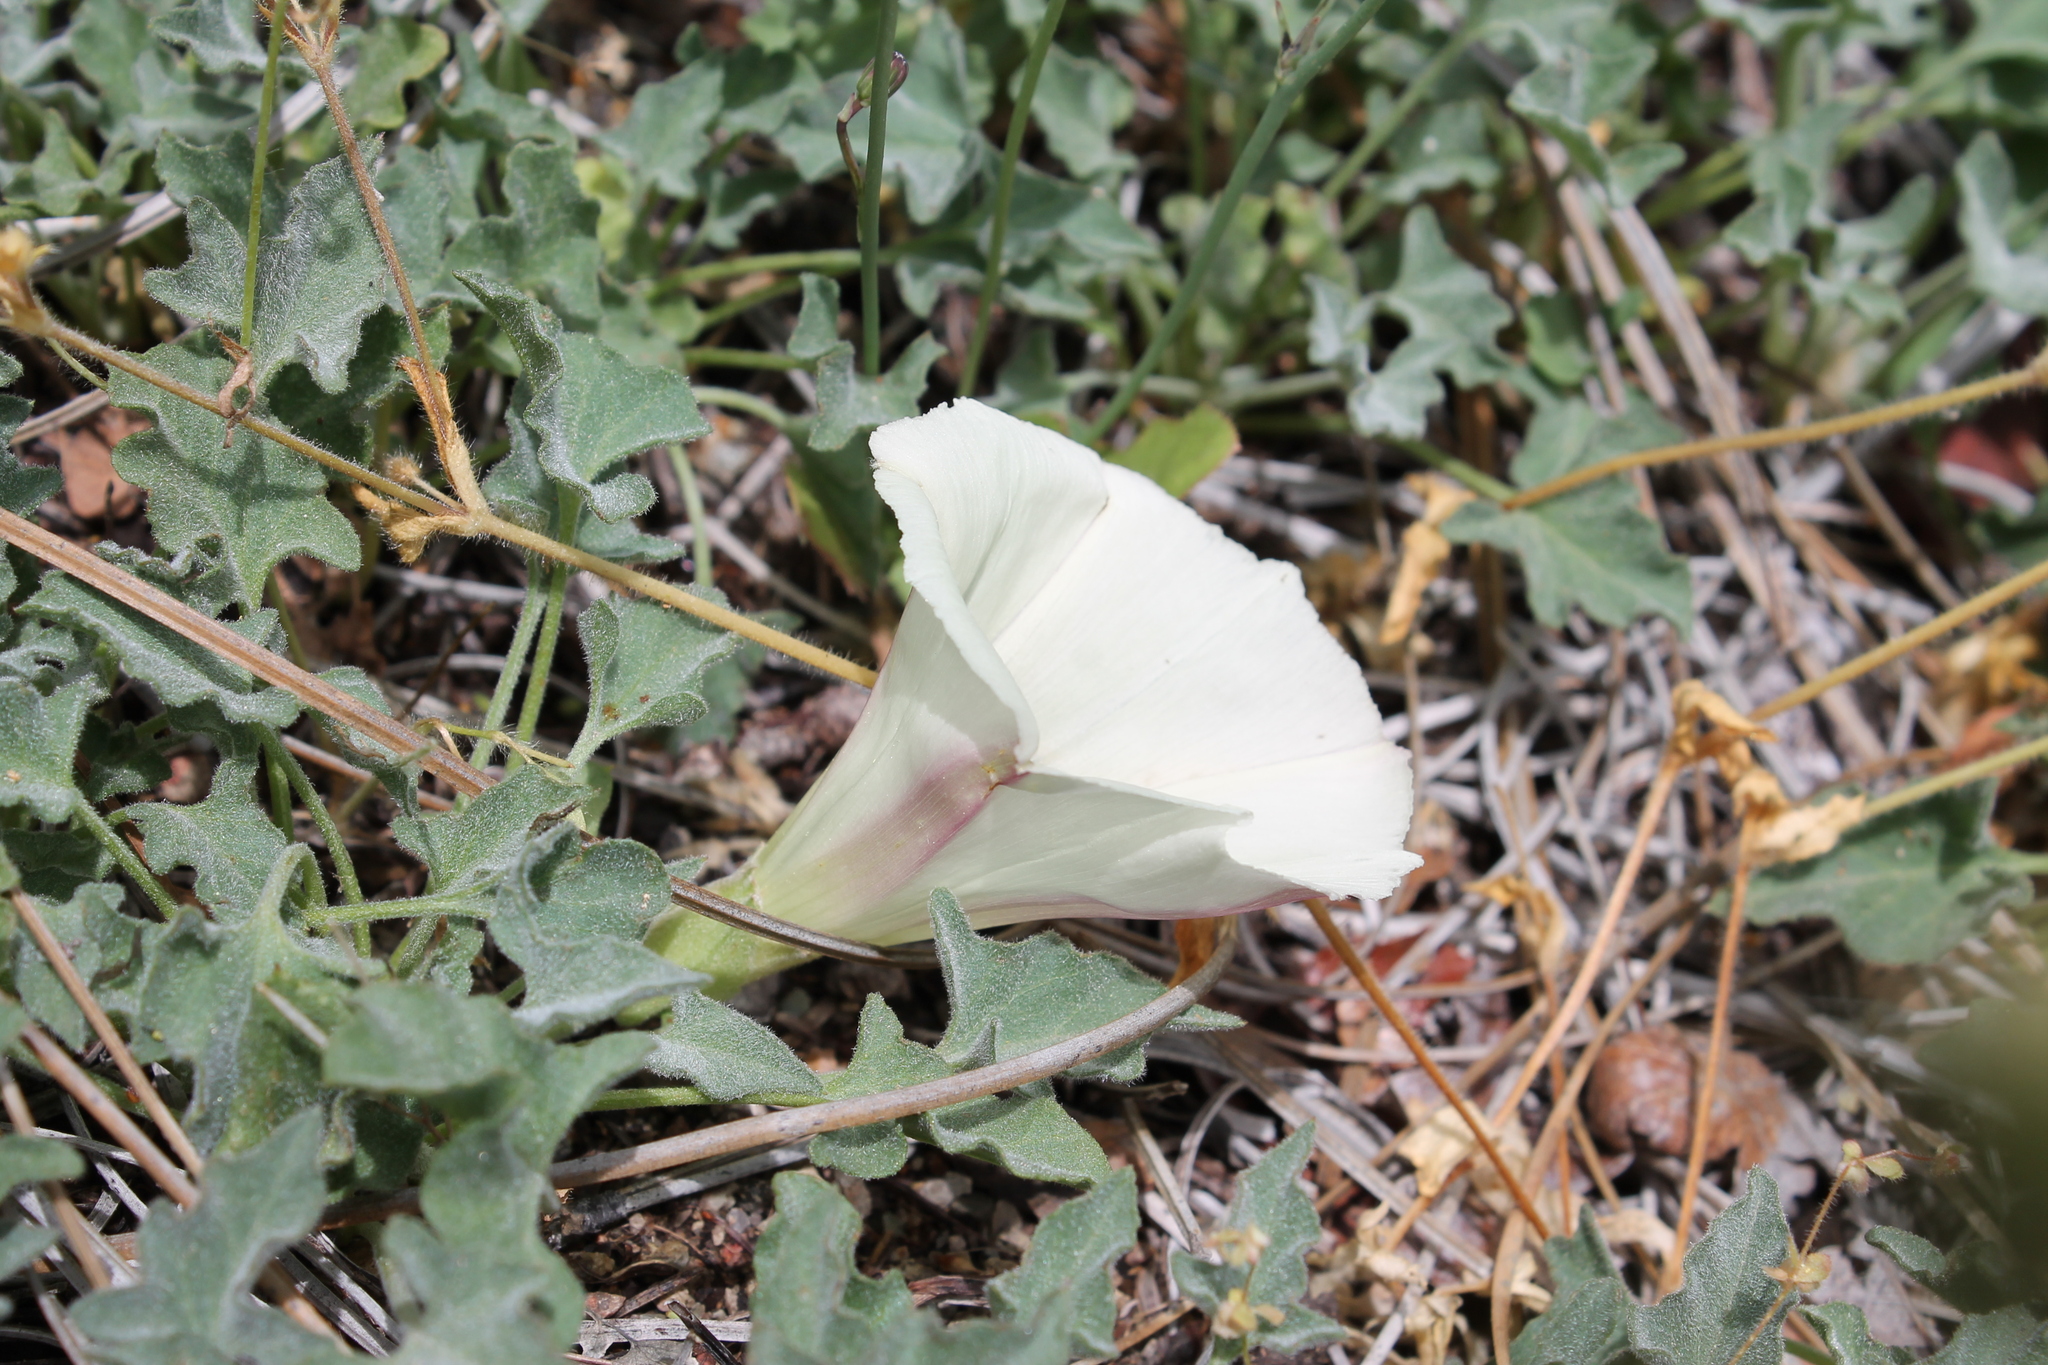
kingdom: Plantae
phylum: Tracheophyta
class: Magnoliopsida
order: Solanales
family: Convolvulaceae
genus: Calystegia
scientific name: Calystegia collina
